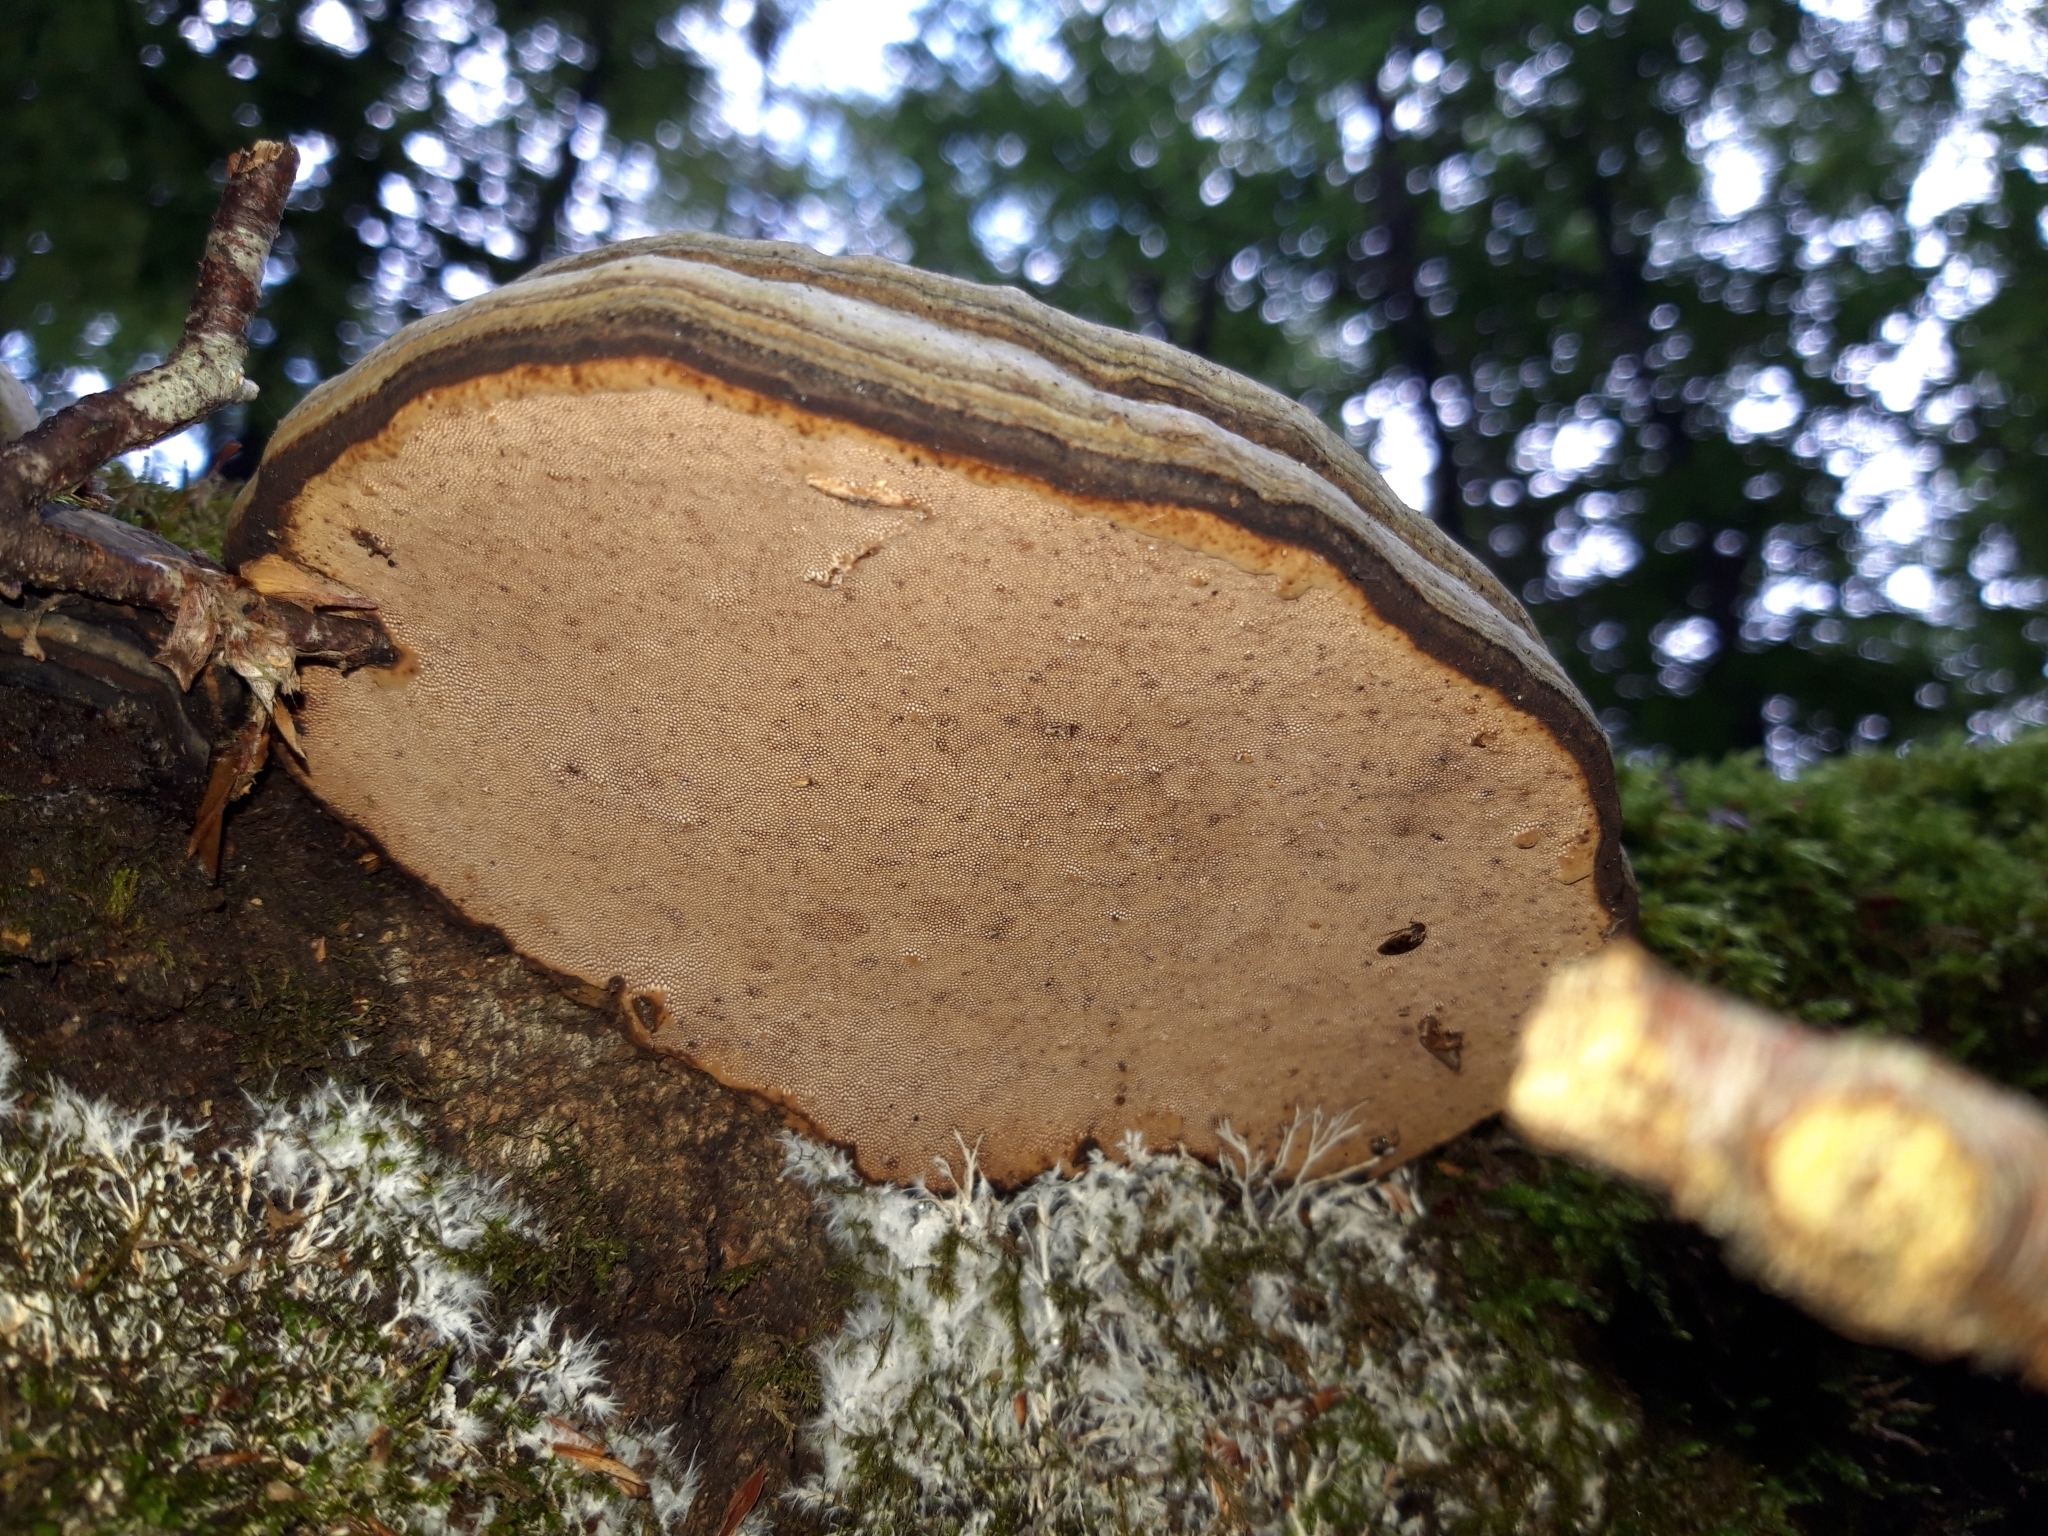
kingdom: Fungi
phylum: Basidiomycota
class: Agaricomycetes
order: Polyporales
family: Polyporaceae
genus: Fomes
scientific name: Fomes fomentarius
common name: Hoof fungus
